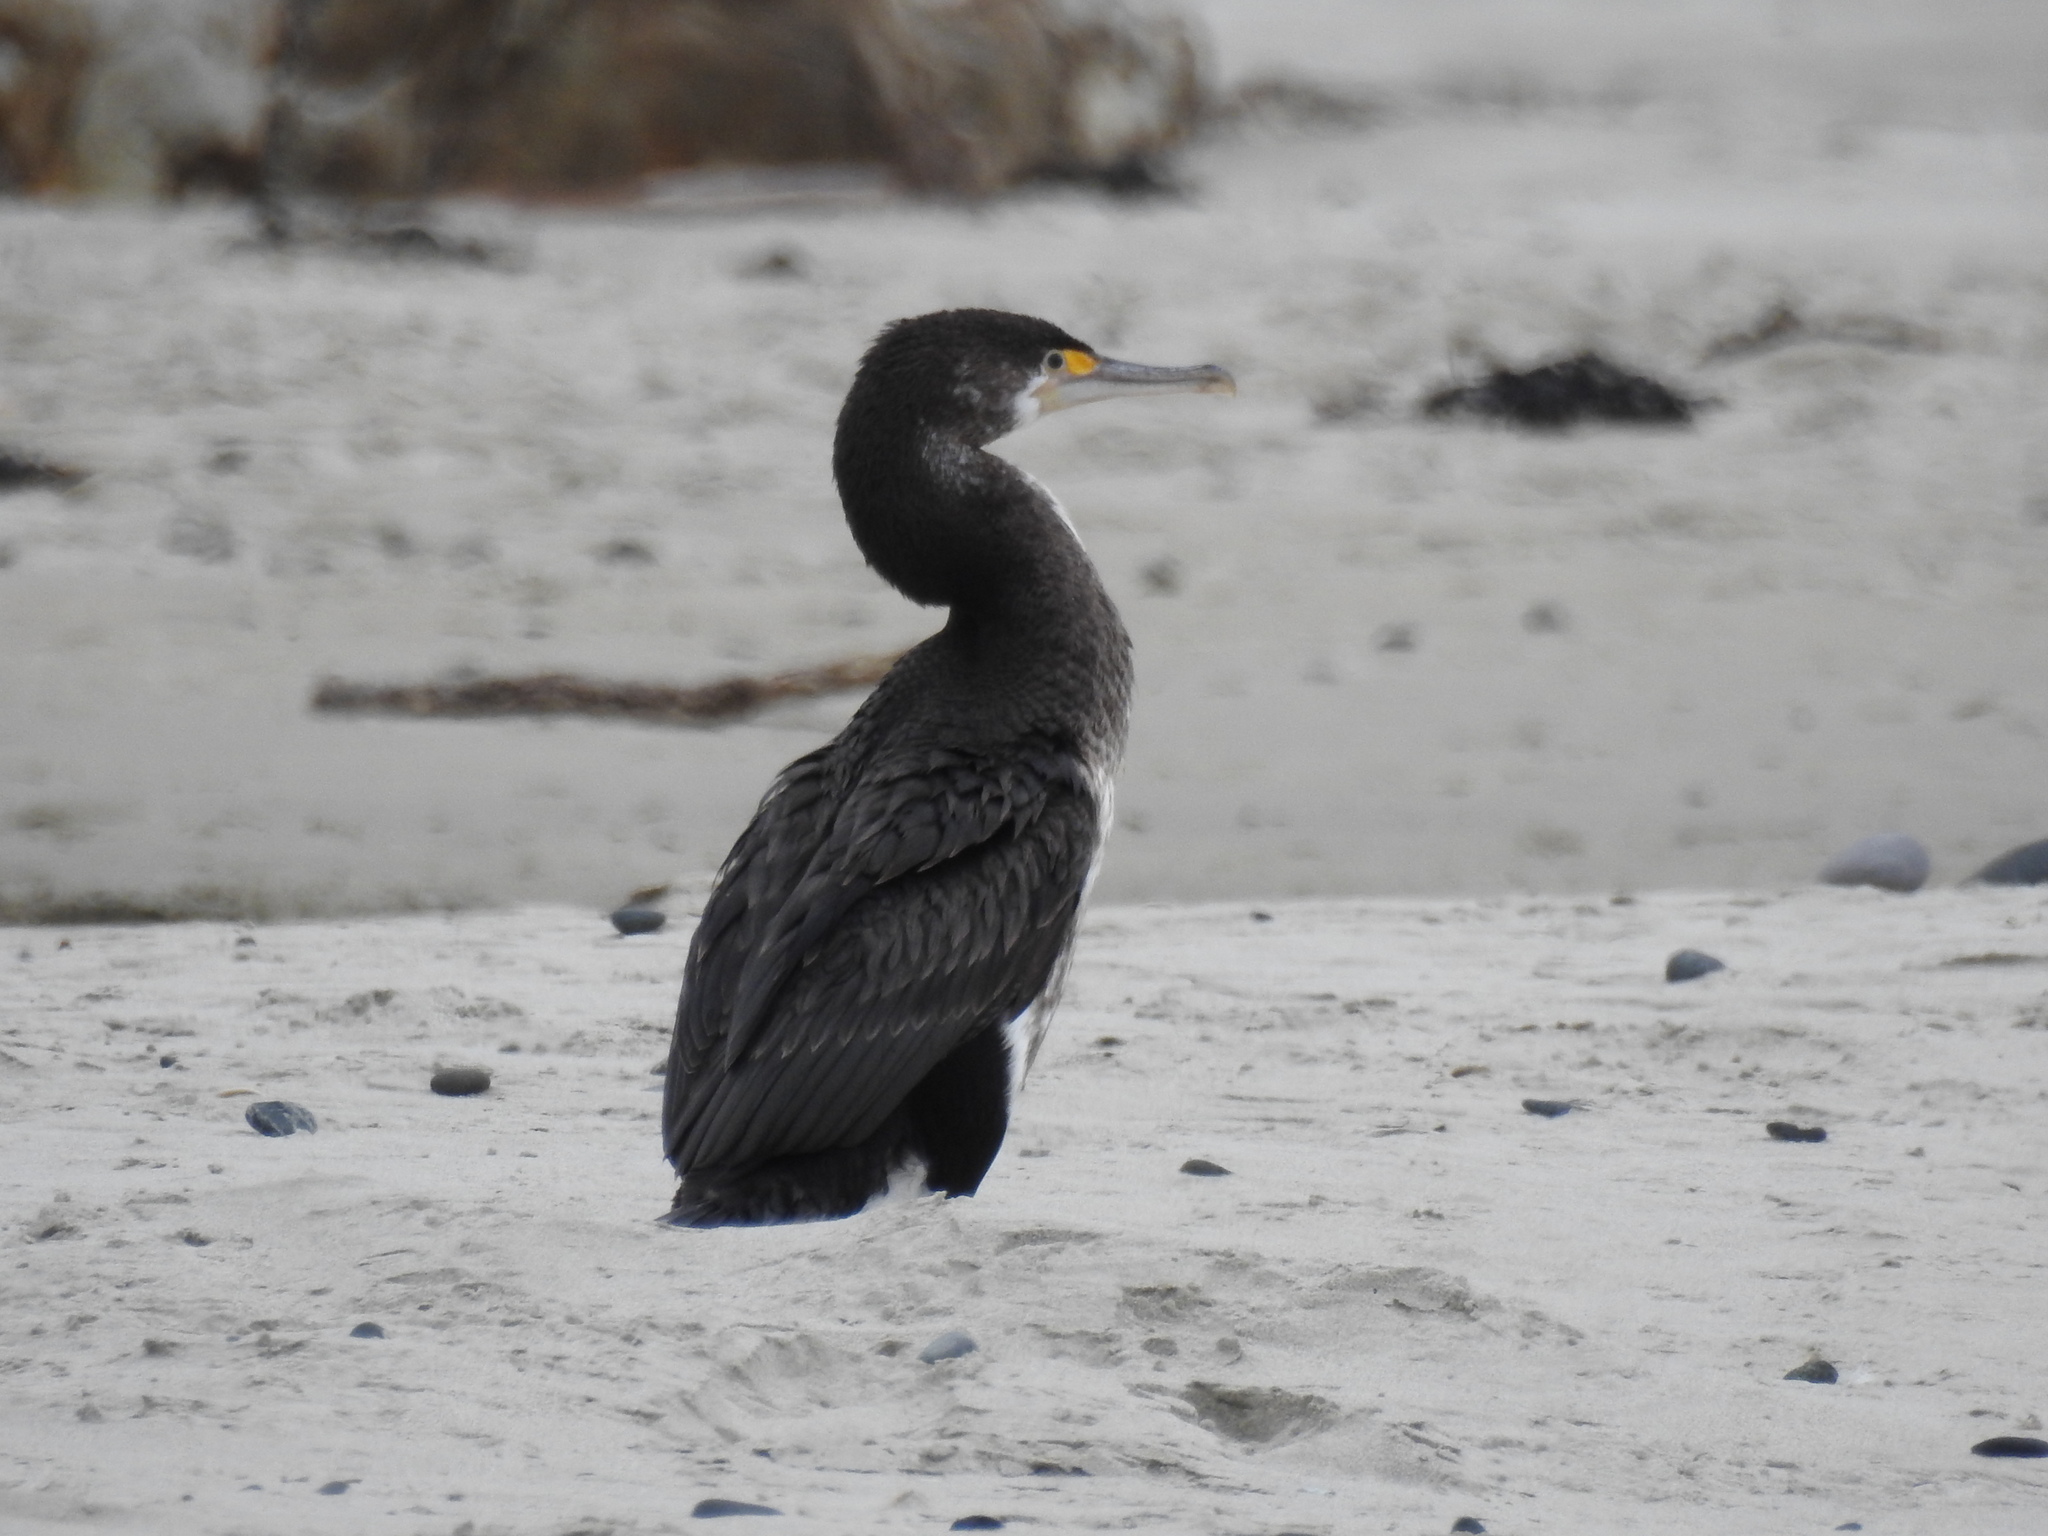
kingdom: Animalia
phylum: Chordata
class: Aves
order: Suliformes
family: Phalacrocoracidae
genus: Phalacrocorax
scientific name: Phalacrocorax varius
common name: Pied cormorant
